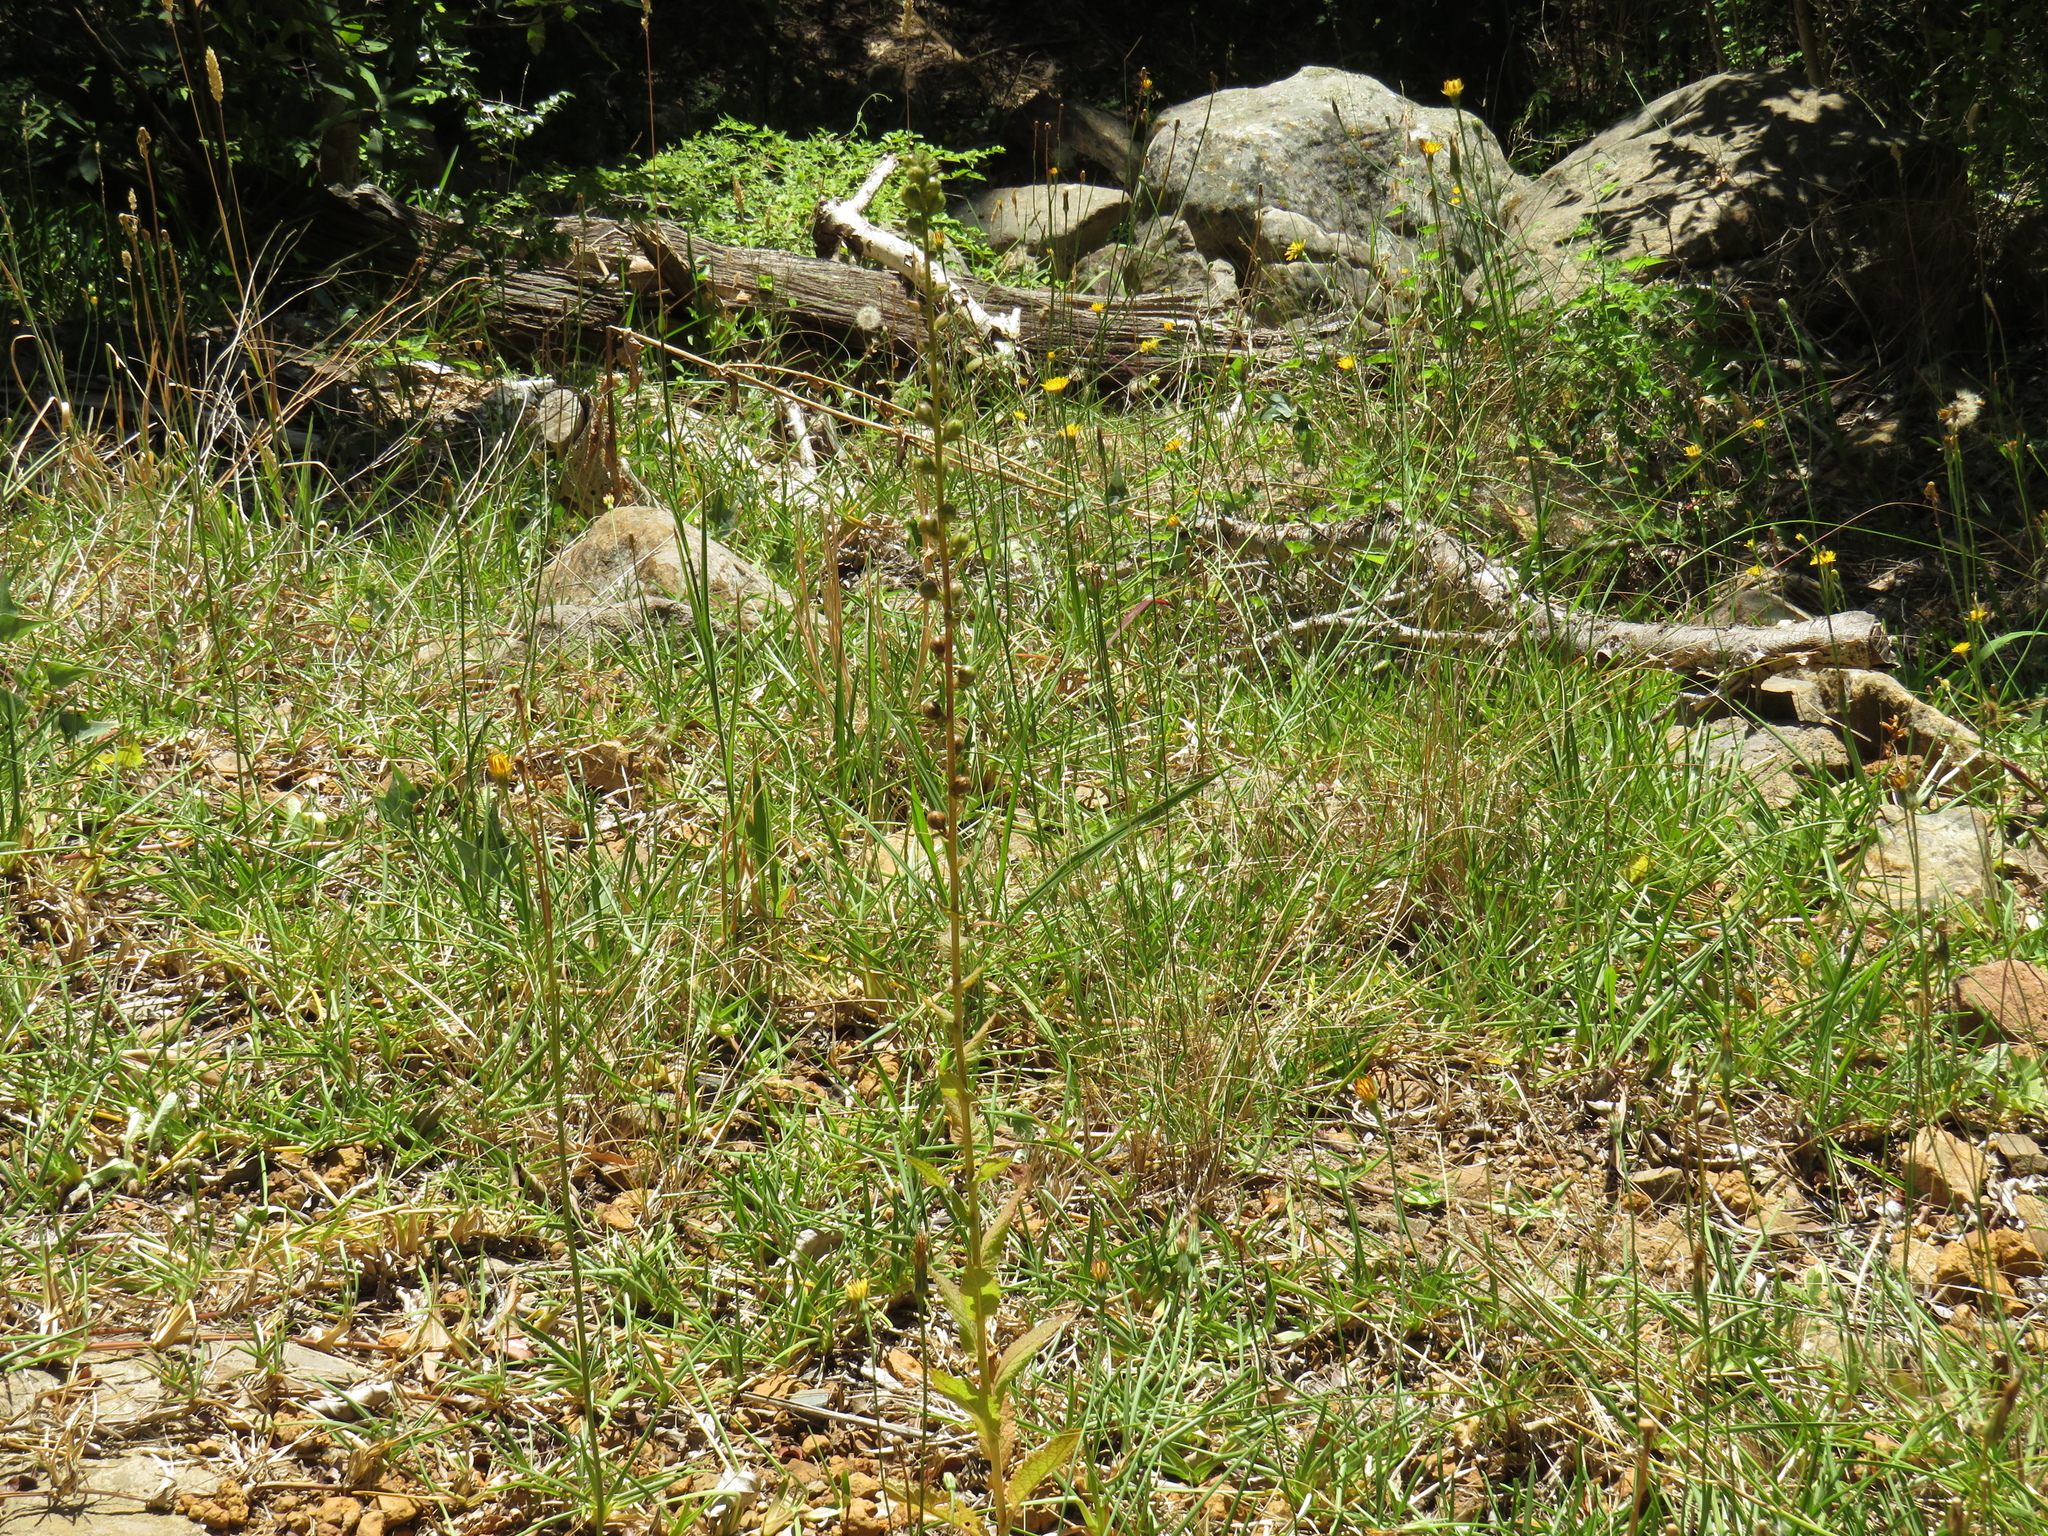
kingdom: Plantae
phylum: Tracheophyta
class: Magnoliopsida
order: Lamiales
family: Scrophulariaceae
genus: Verbascum
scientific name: Verbascum virgatum
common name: Twiggy mullein
